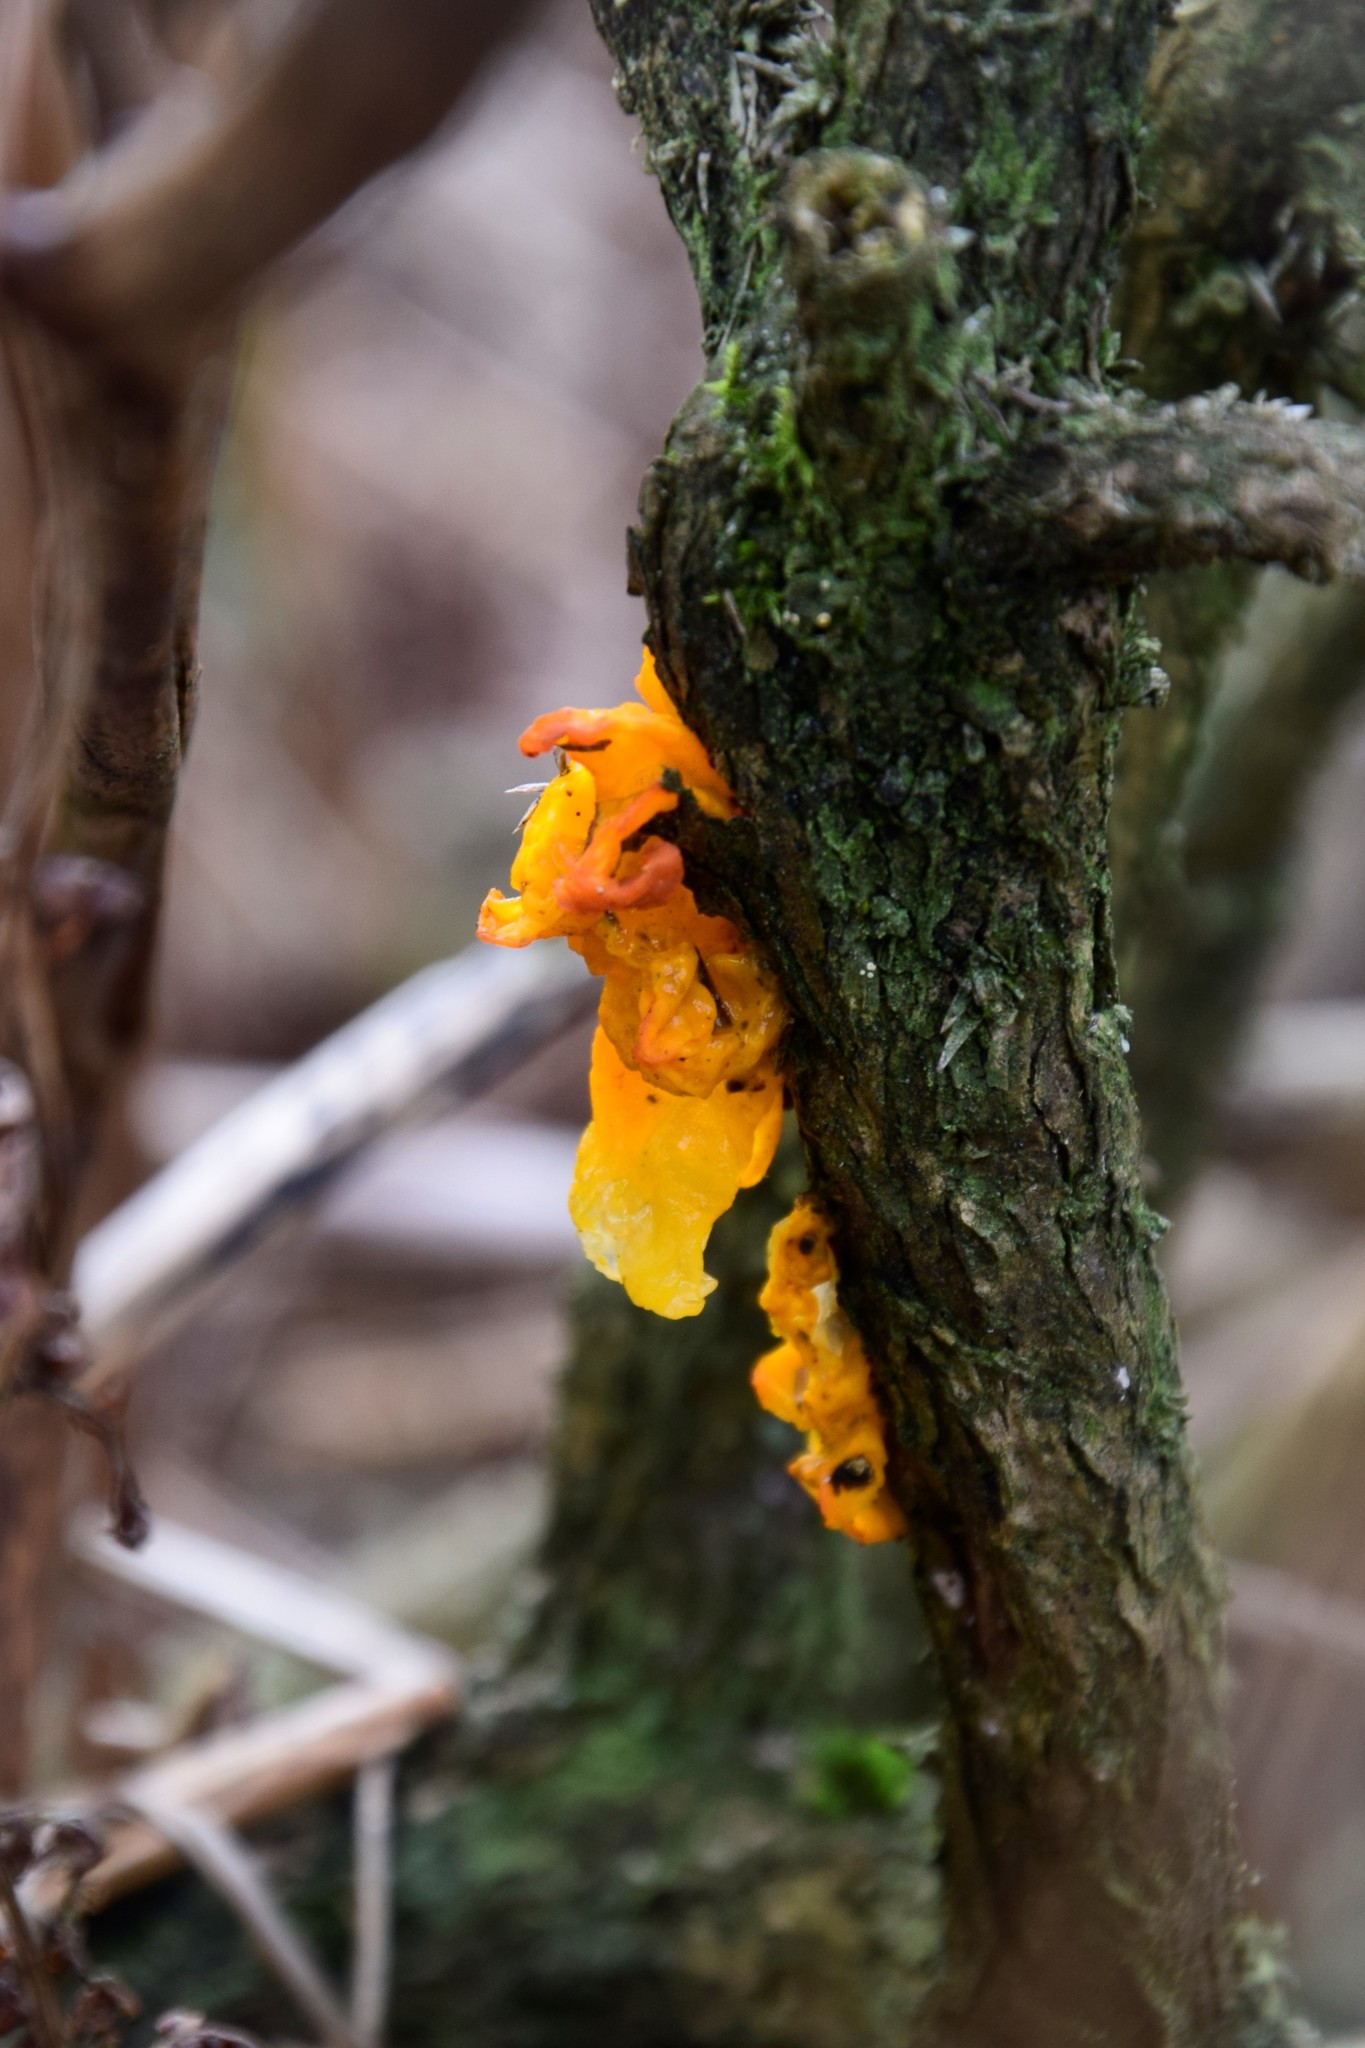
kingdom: Fungi
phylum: Basidiomycota
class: Tremellomycetes
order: Tremellales
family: Tremellaceae
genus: Tremella
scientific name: Tremella mesenterica
